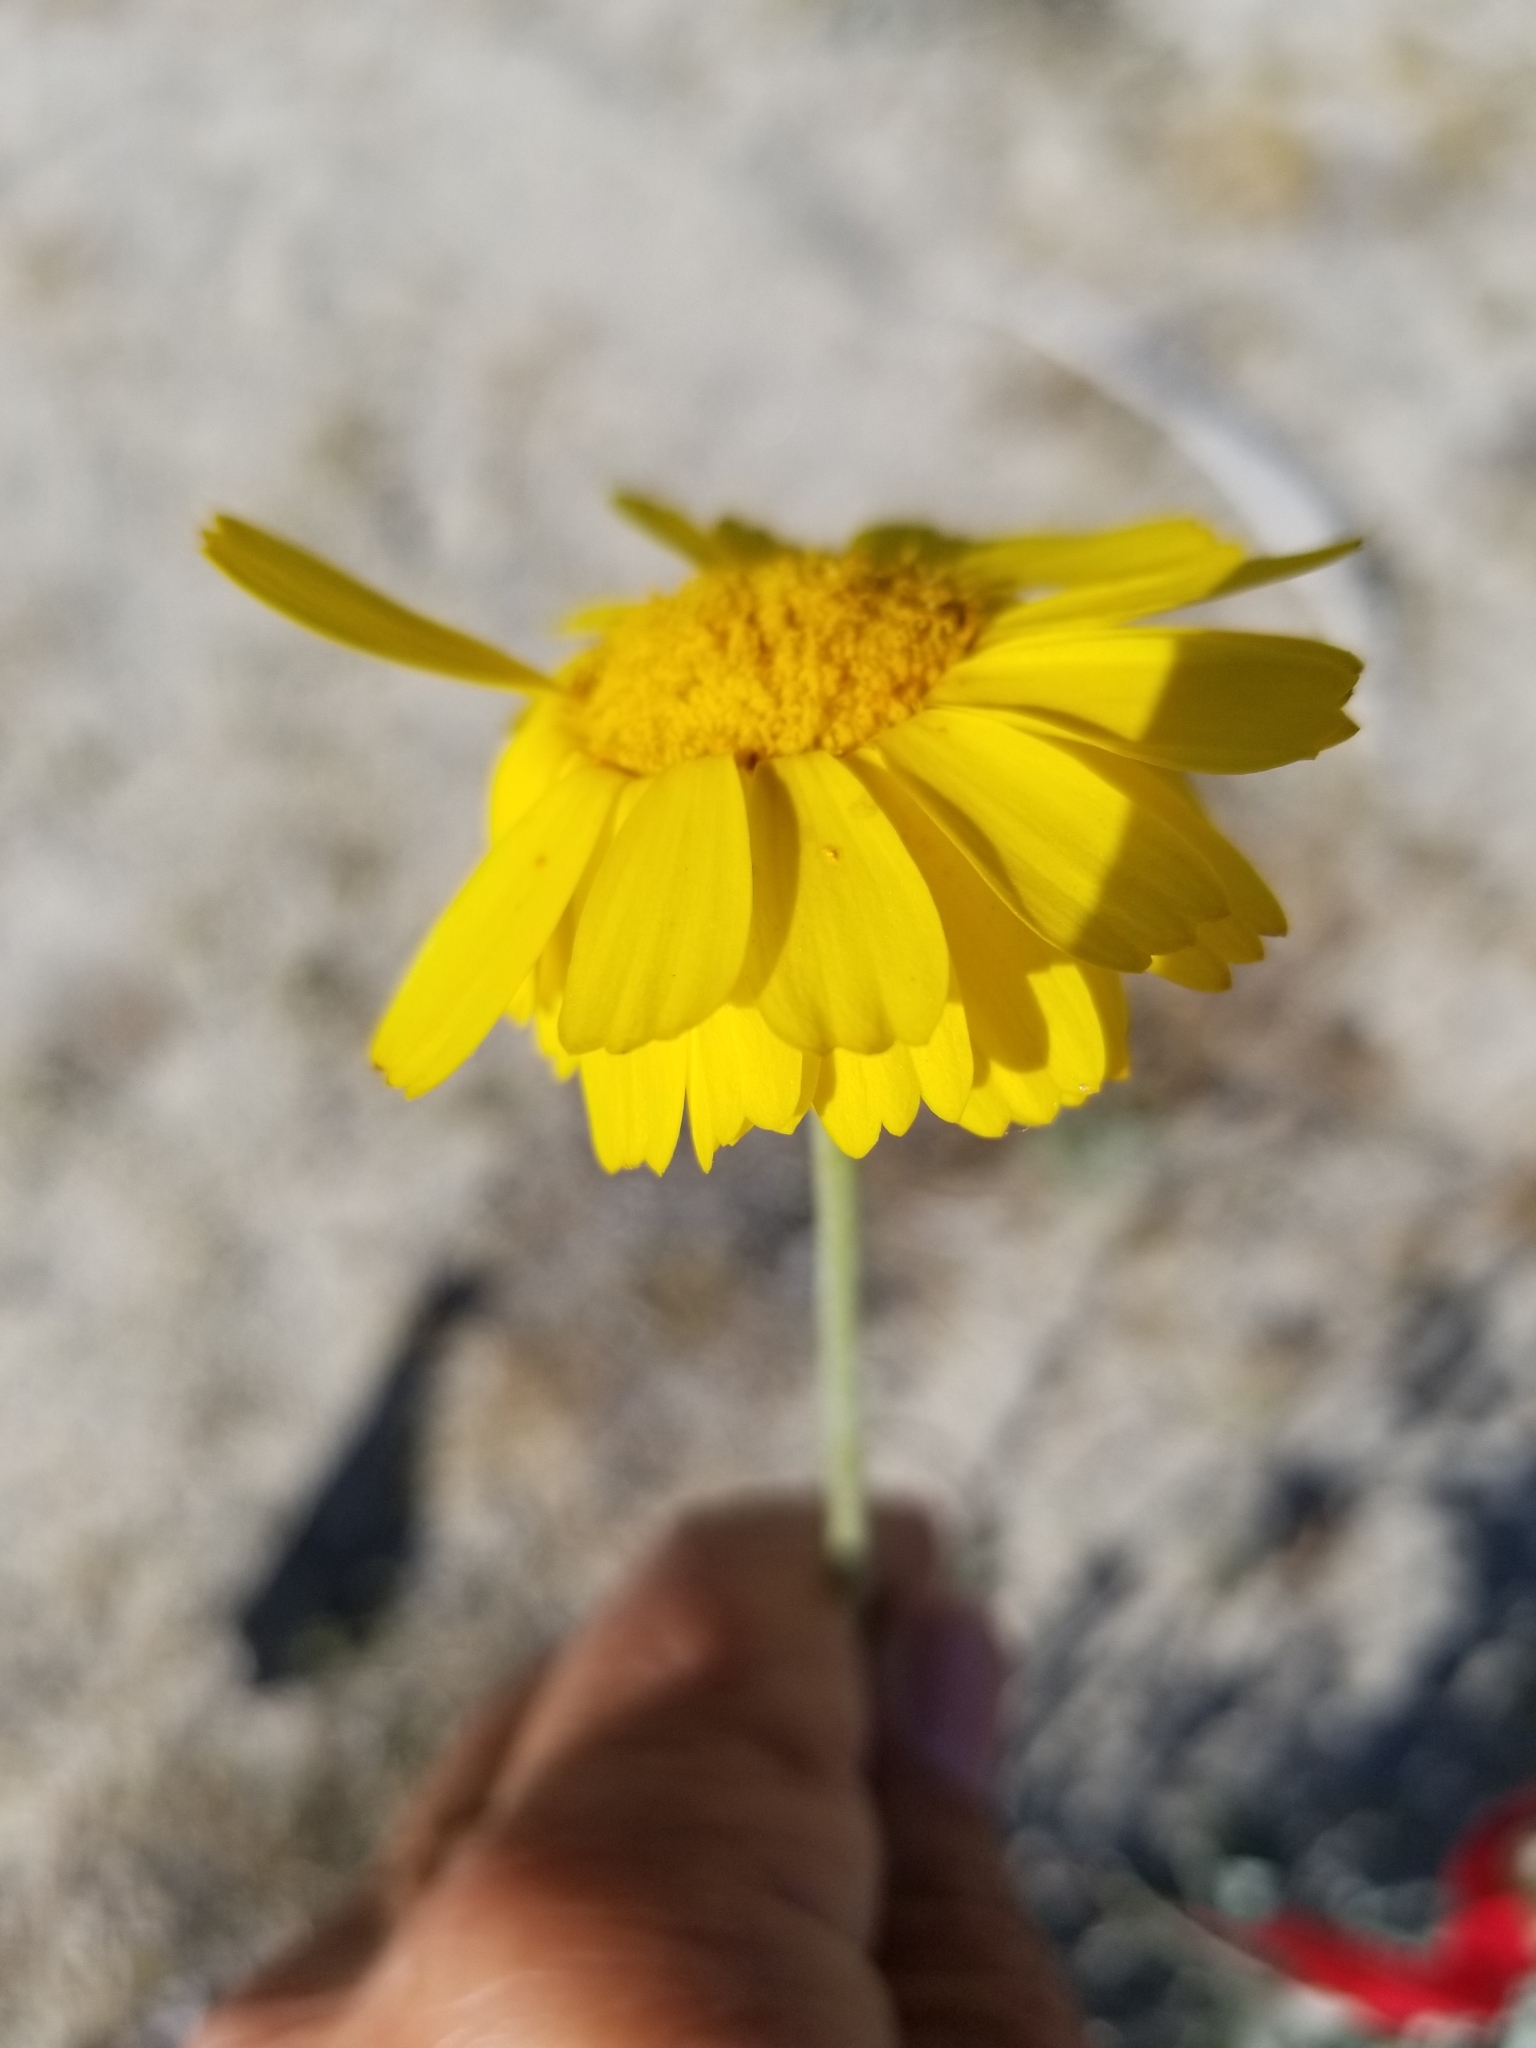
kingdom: Plantae
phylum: Tracheophyta
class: Magnoliopsida
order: Asterales
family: Asteraceae
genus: Baileya
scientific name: Baileya multiradiata
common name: Desert-marigold
